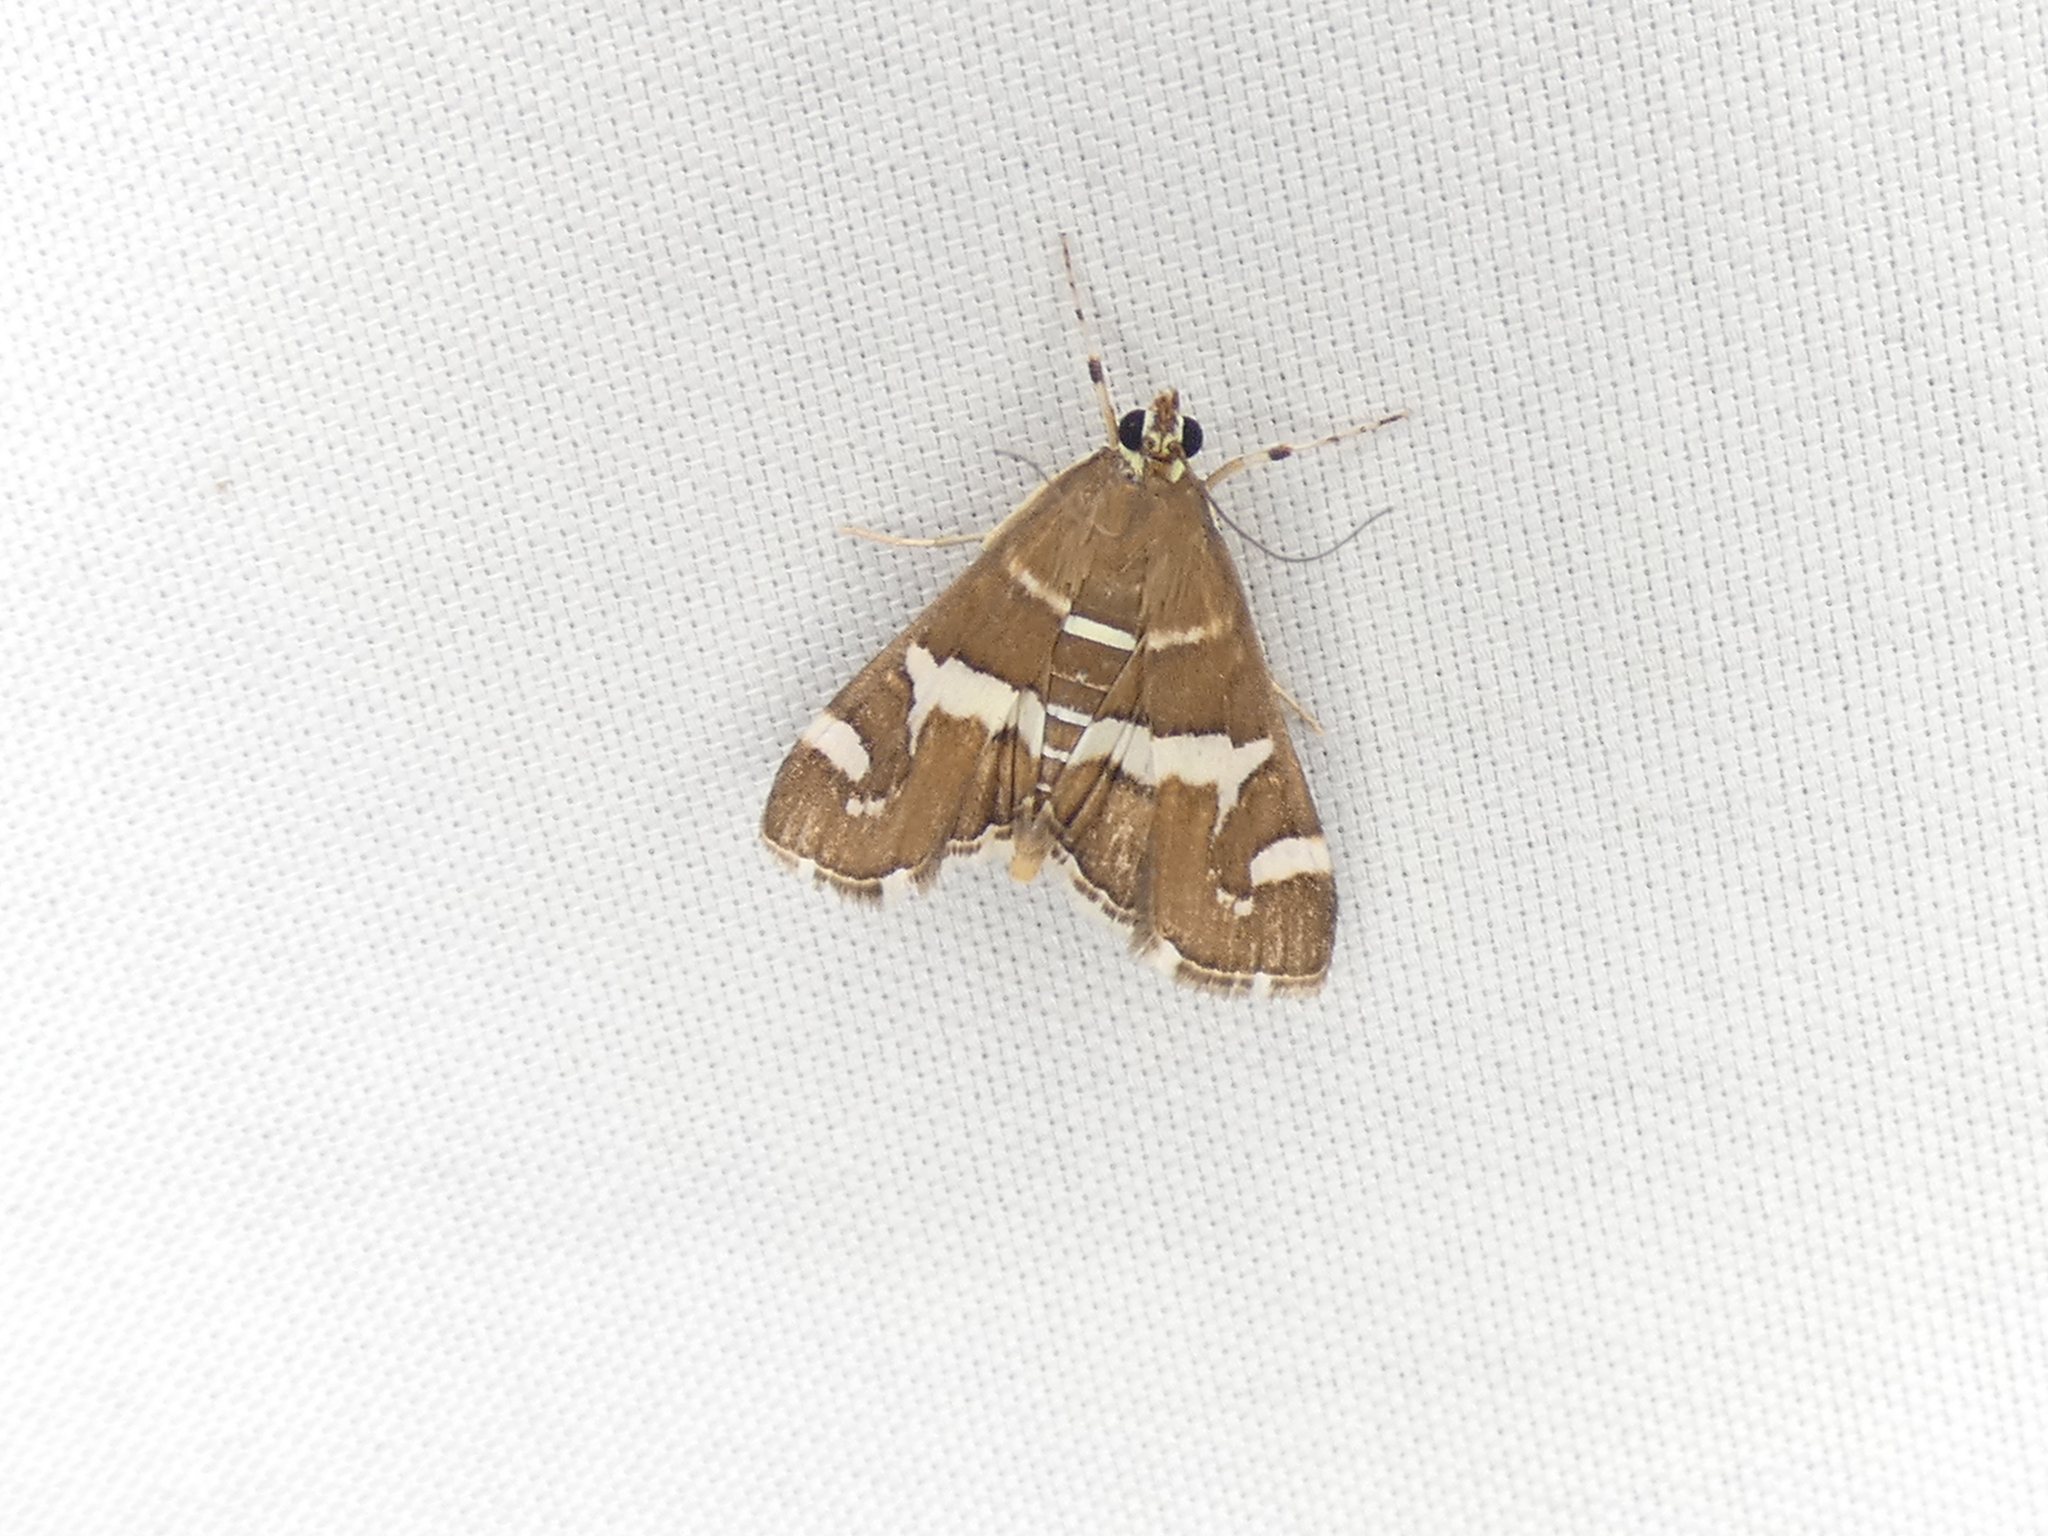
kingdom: Animalia
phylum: Arthropoda
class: Insecta
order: Lepidoptera
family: Crambidae
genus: Spoladea
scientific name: Spoladea recurvalis
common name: Beet webworm moth
